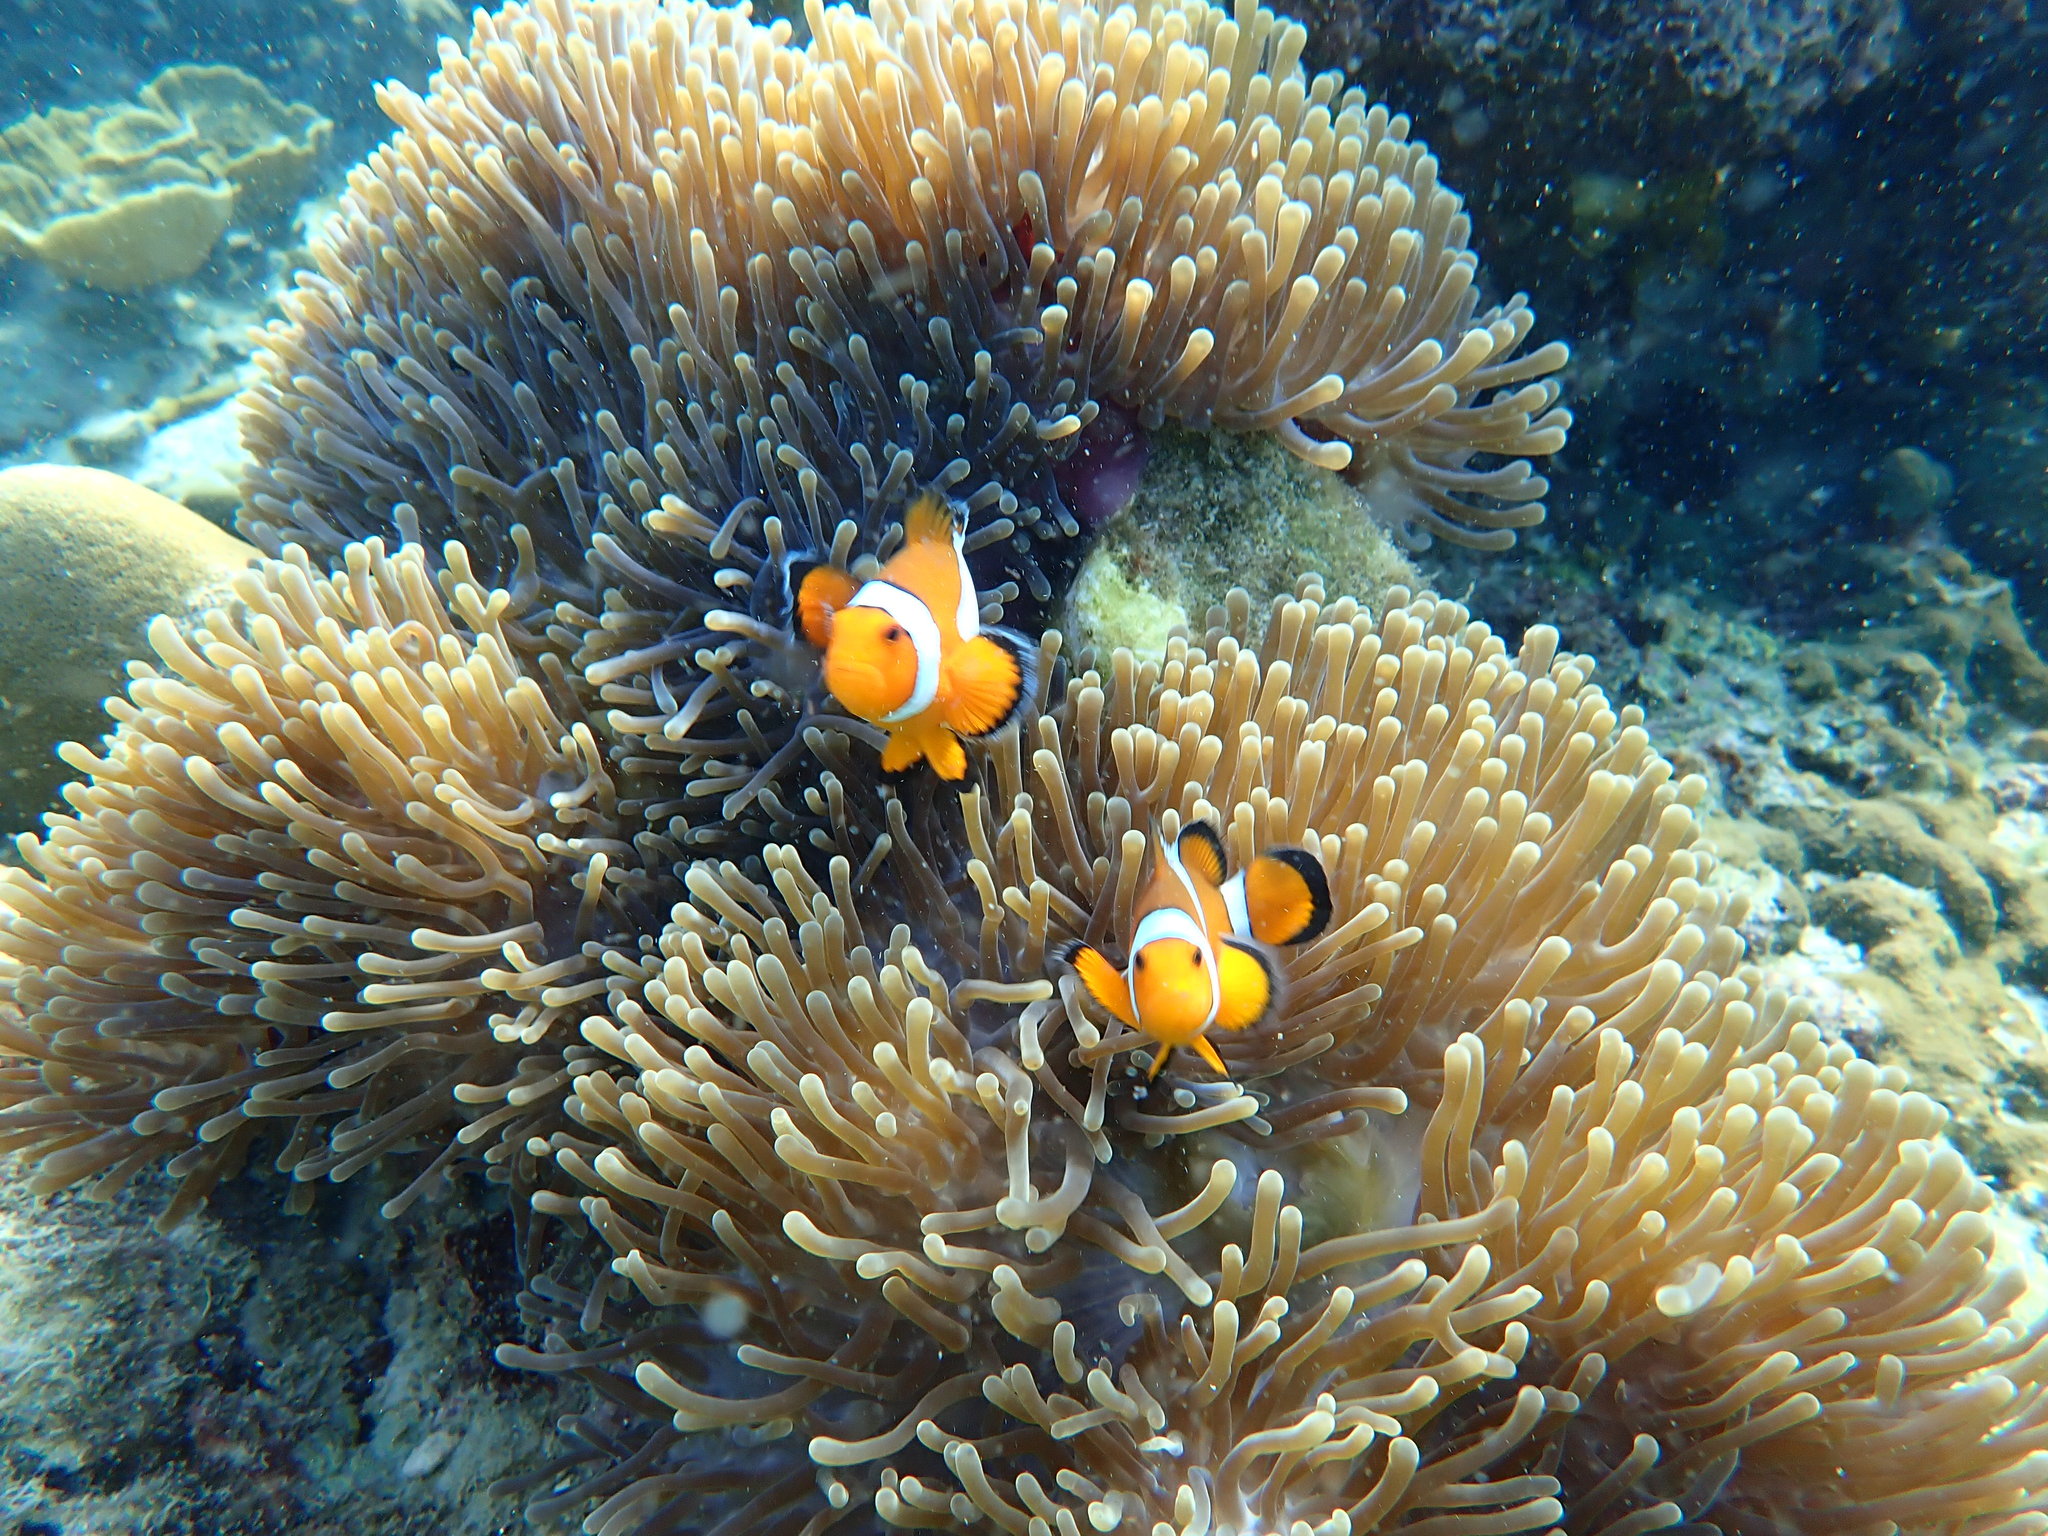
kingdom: Animalia
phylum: Cnidaria
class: Anthozoa
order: Actiniaria
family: Stichodactylidae
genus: Radianthus
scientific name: Radianthus magnifica
